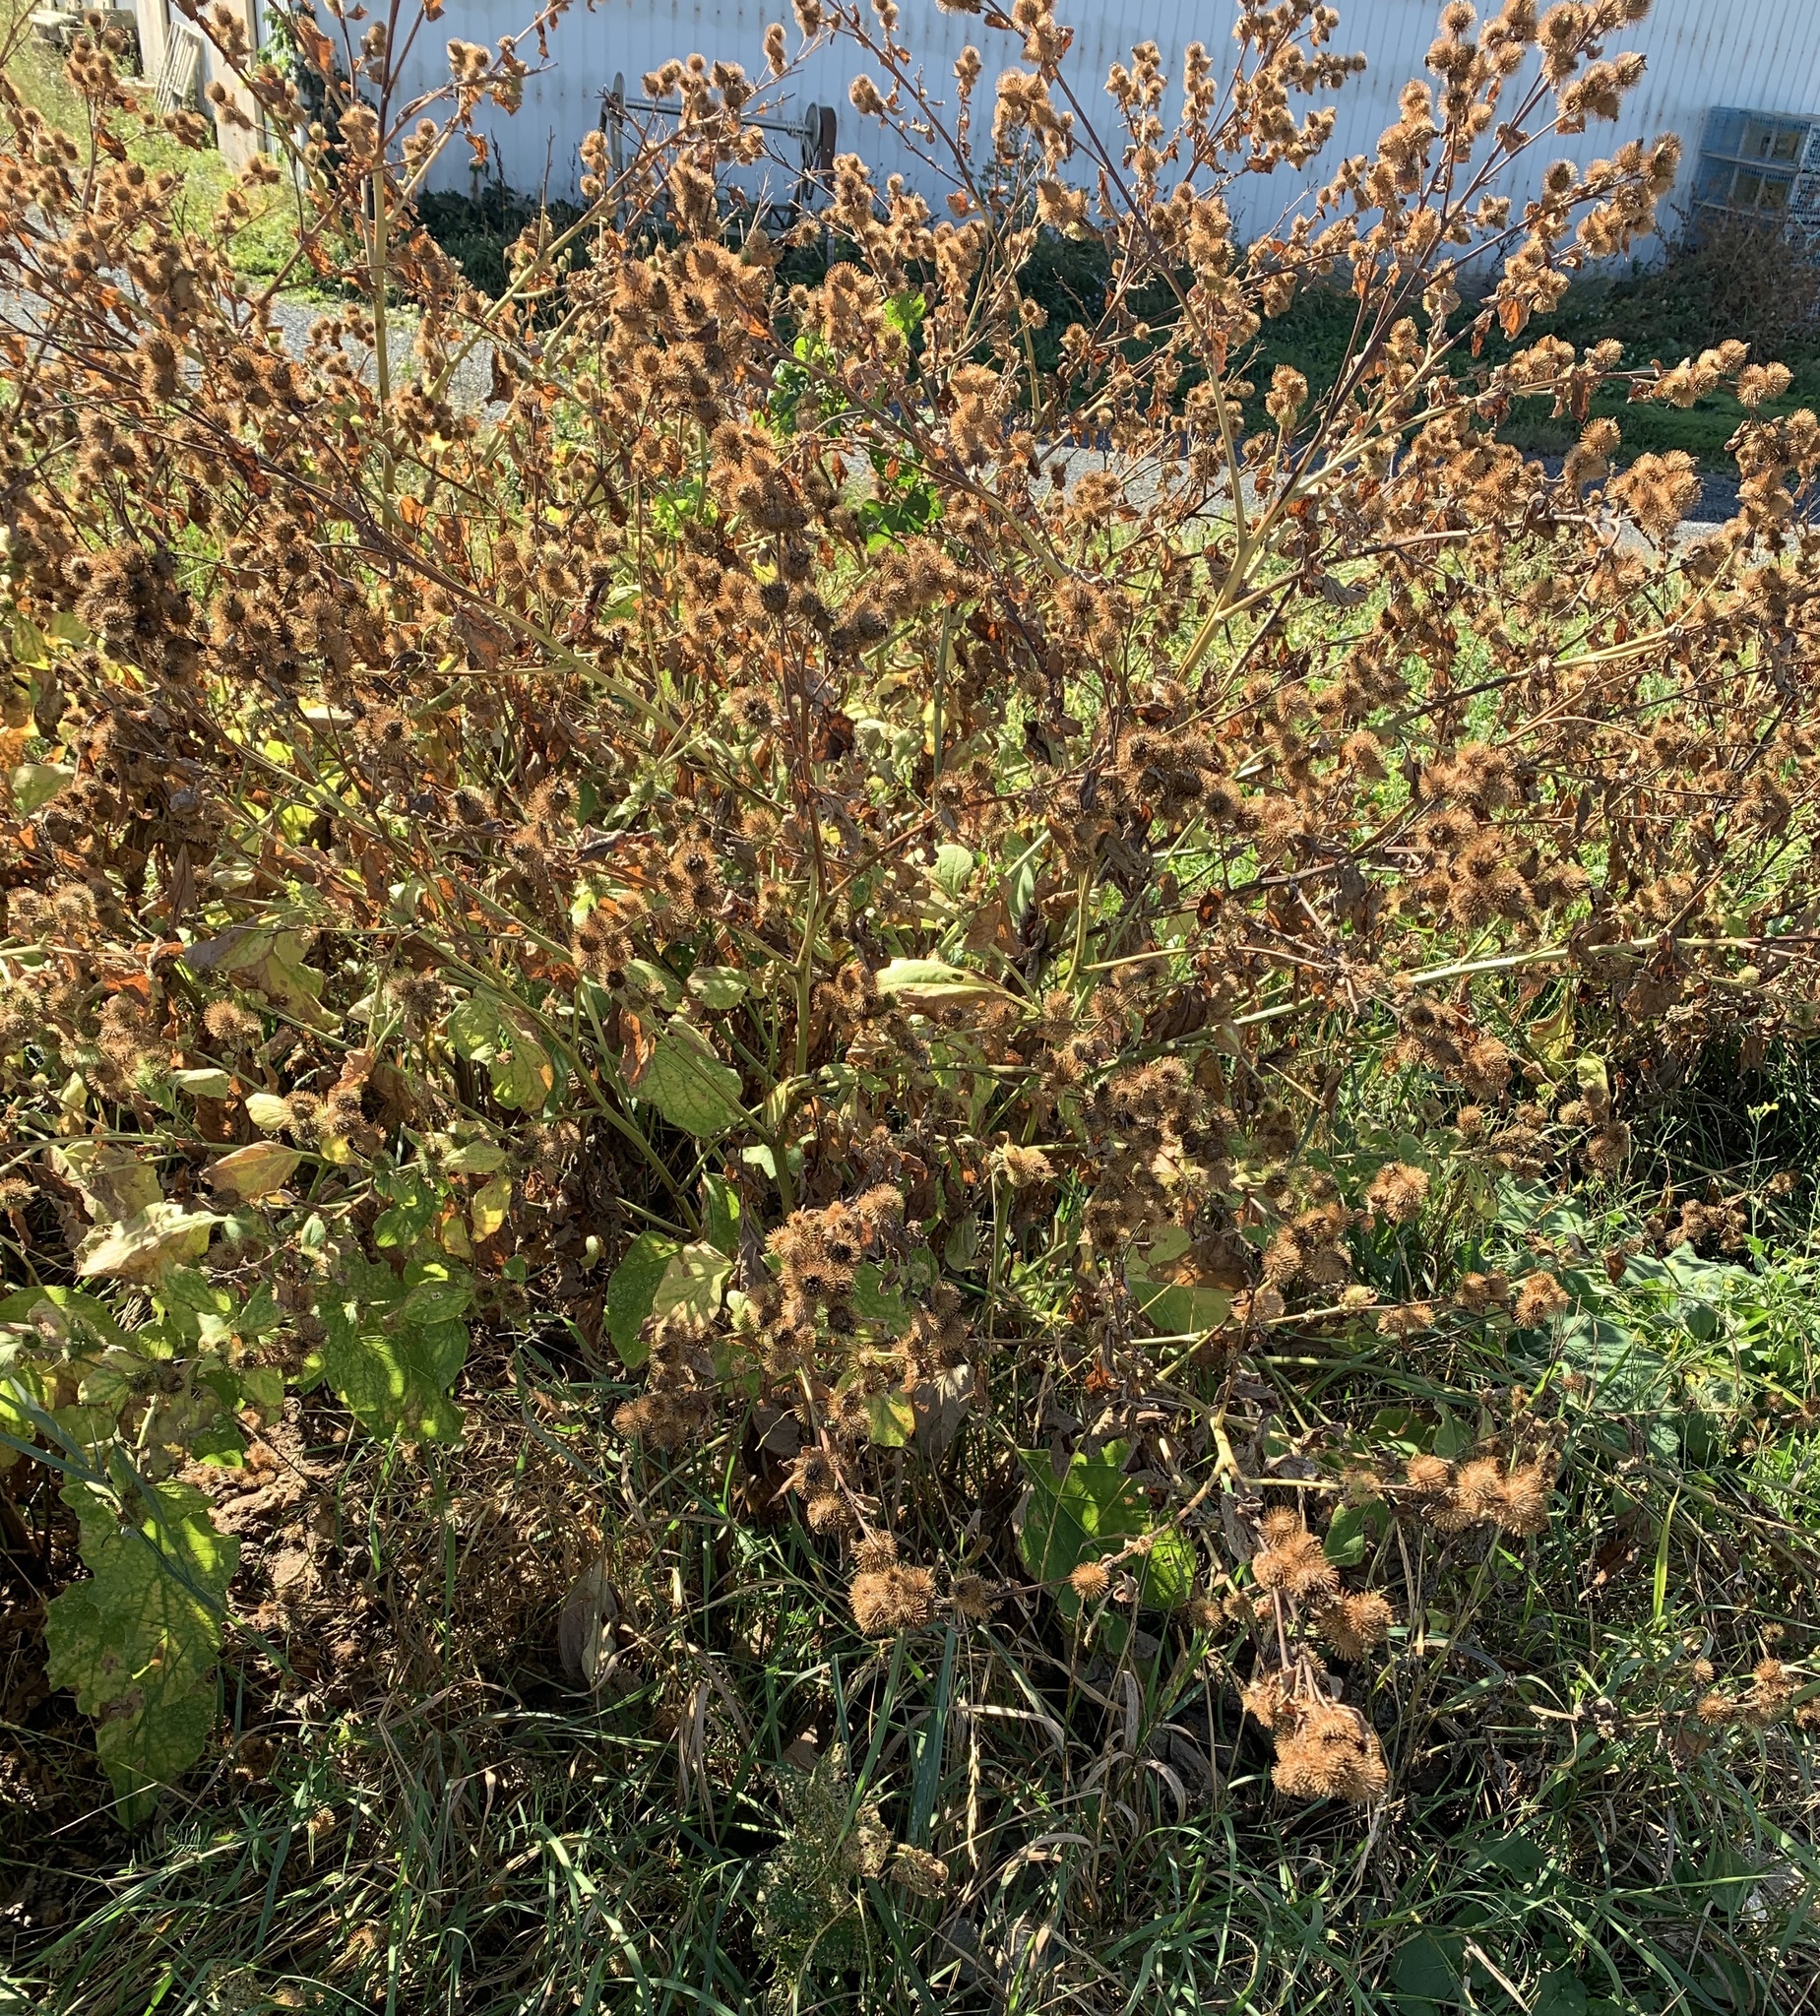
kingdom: Plantae
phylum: Tracheophyta
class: Magnoliopsida
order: Asterales
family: Asteraceae
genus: Arctium
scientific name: Arctium minus
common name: Lesser burdock
